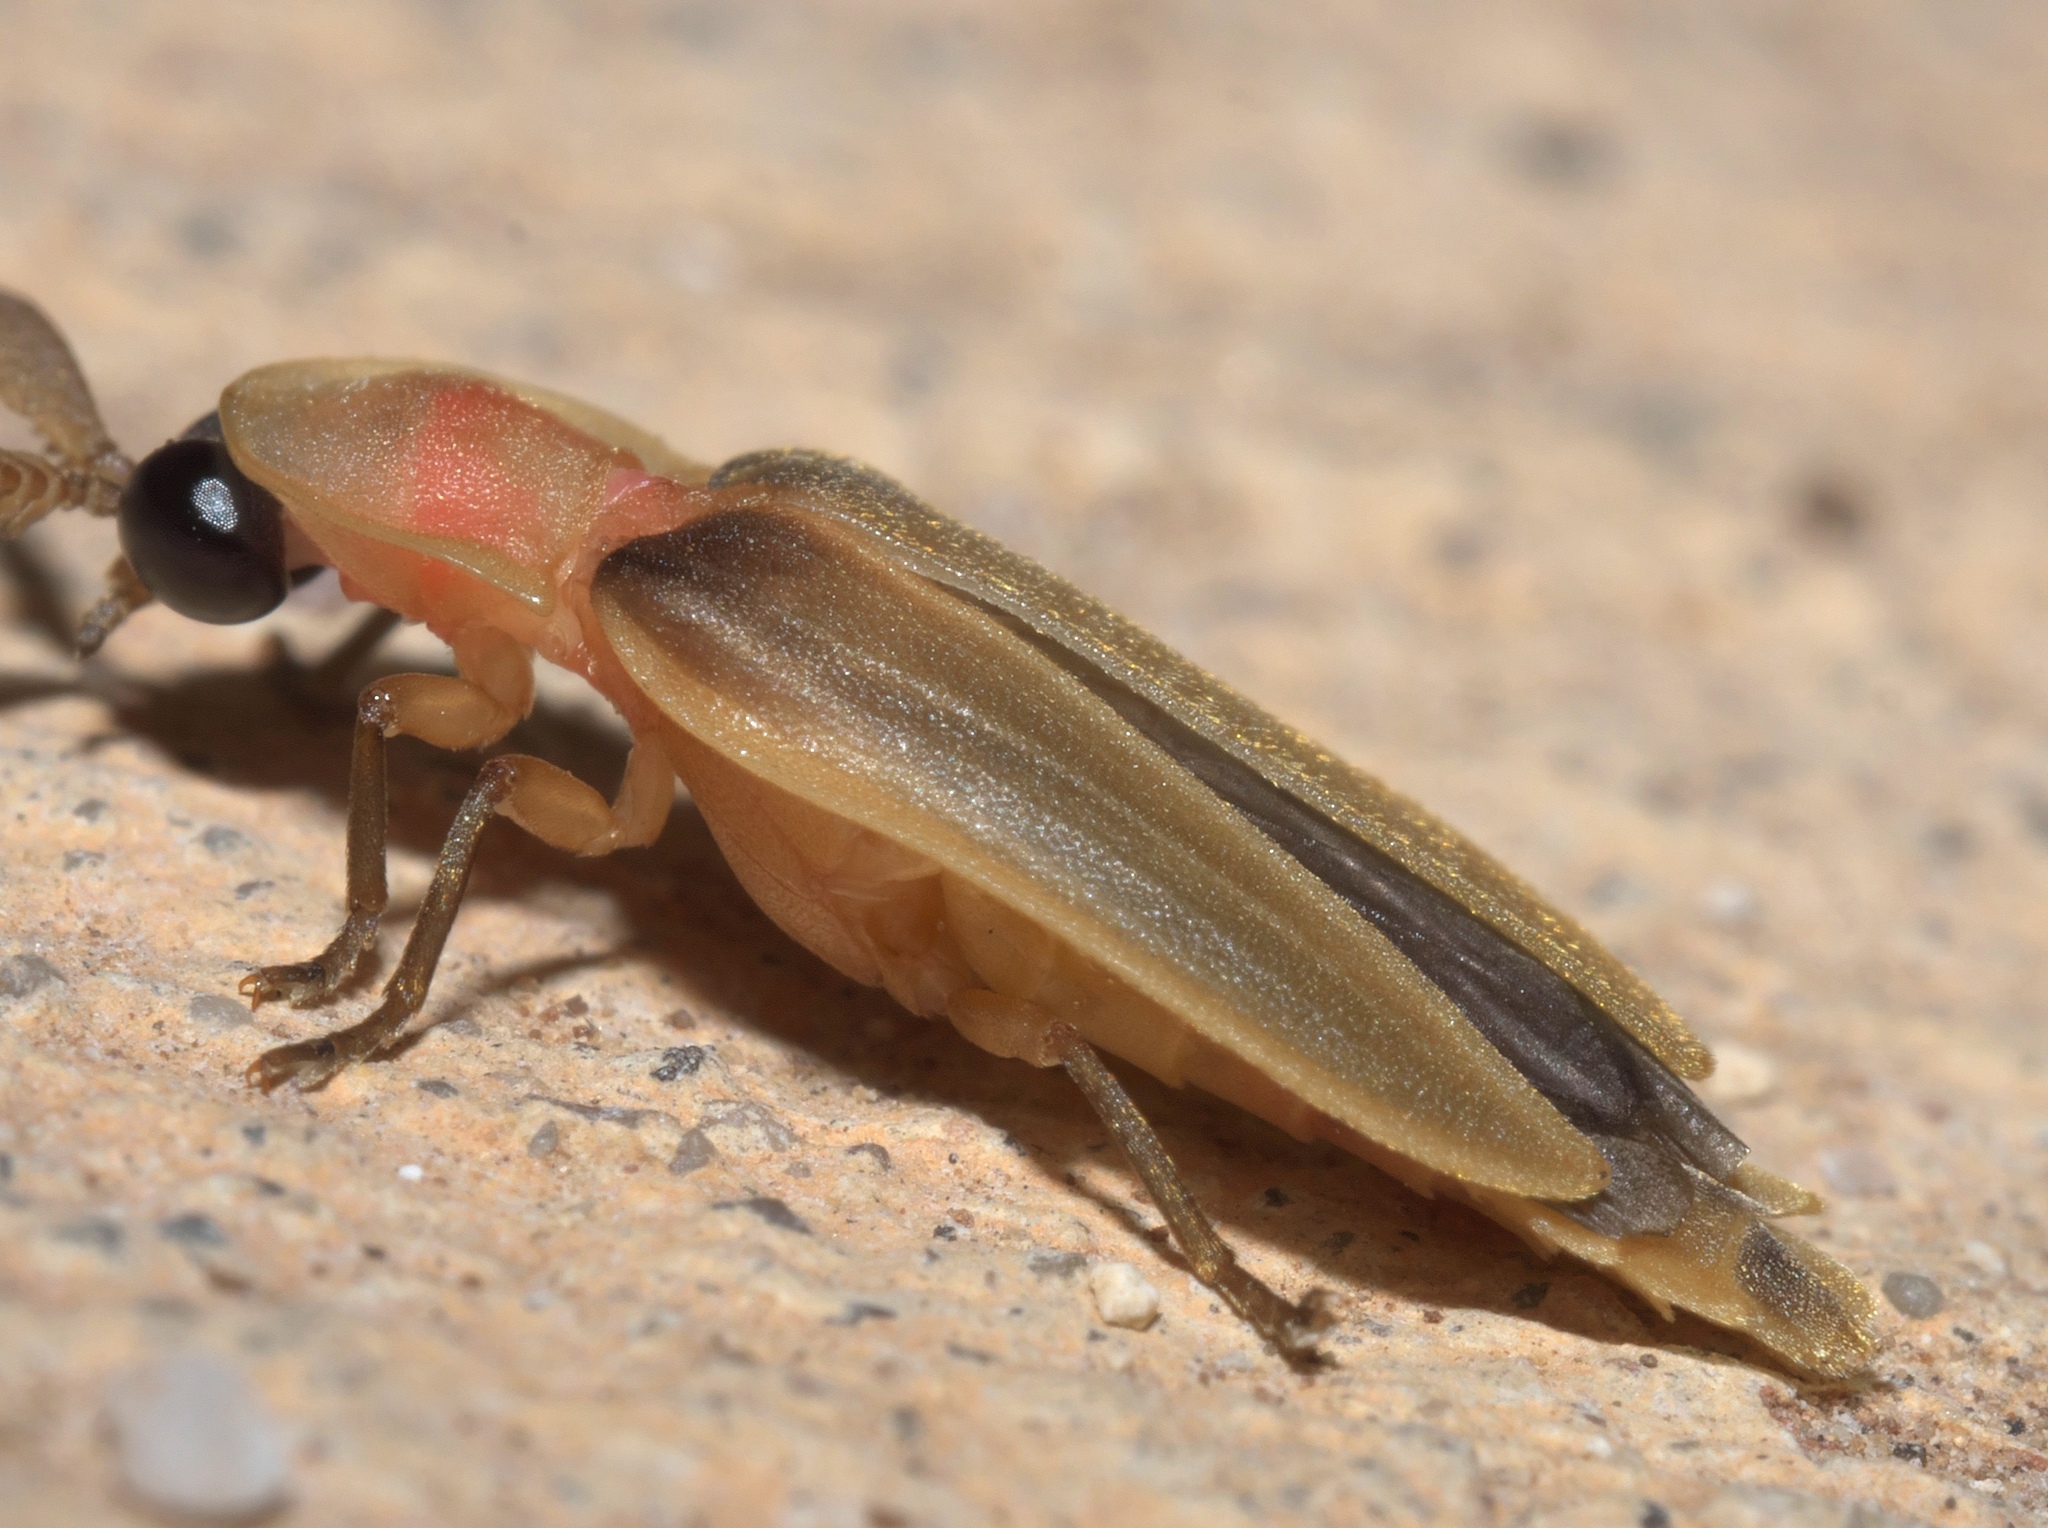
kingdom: Animalia
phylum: Arthropoda
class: Insecta
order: Coleoptera
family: Lampyridae
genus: Pleotomus
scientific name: Pleotomus pallens
